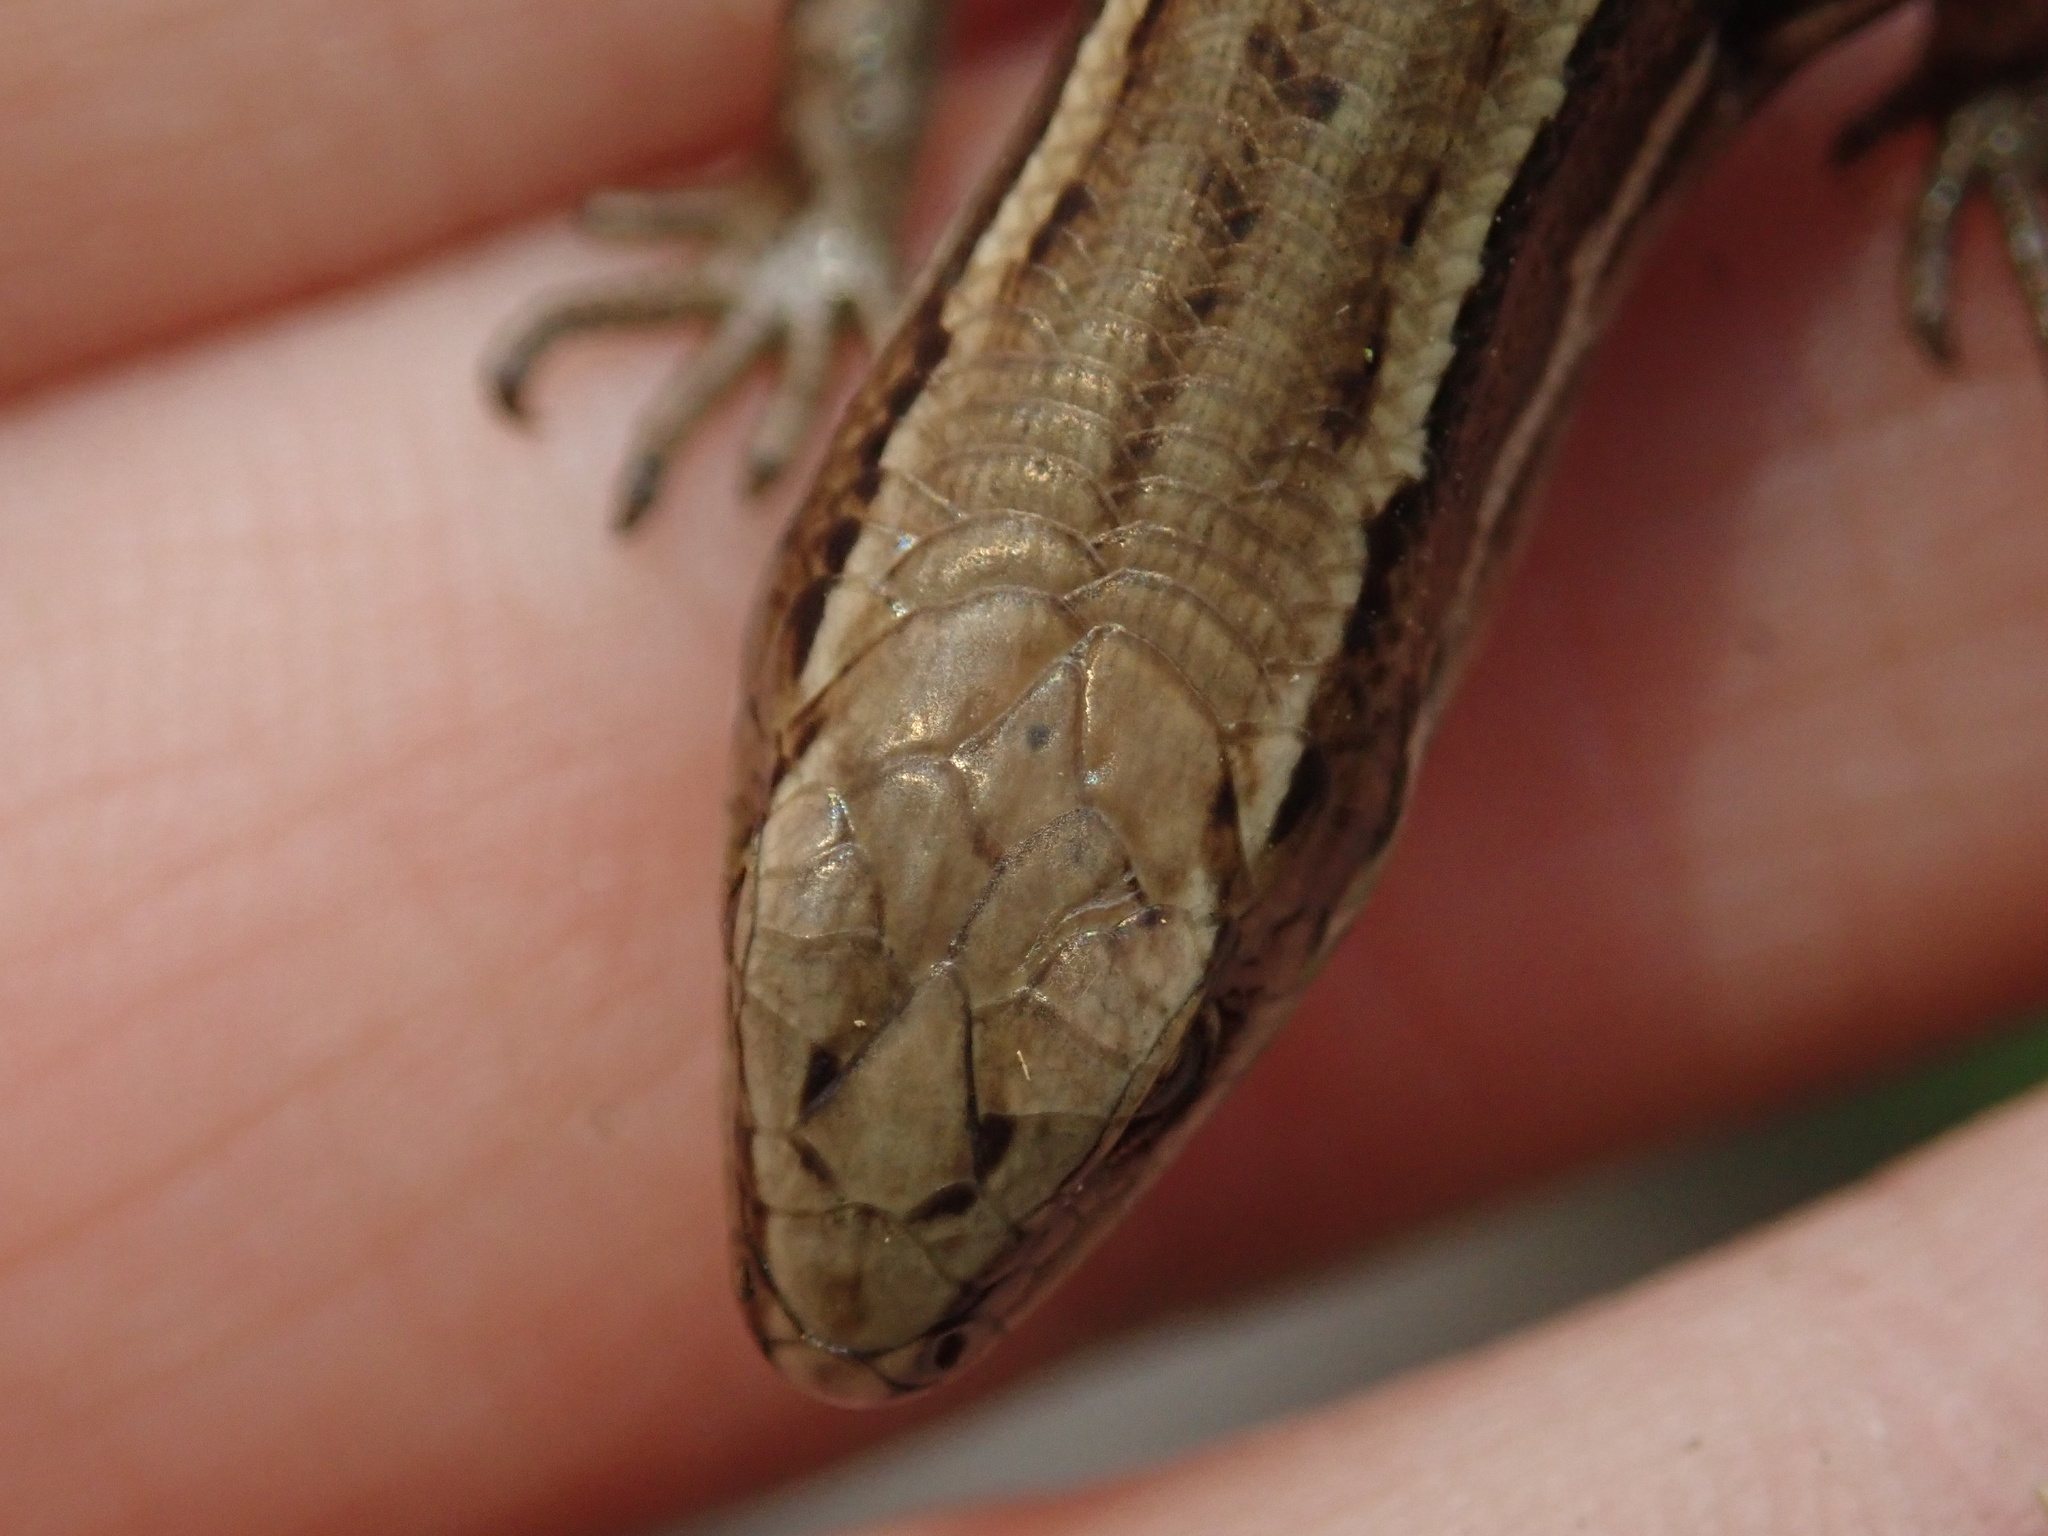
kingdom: Animalia
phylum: Chordata
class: Squamata
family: Scincidae
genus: Oligosoma
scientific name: Oligosoma polychroma
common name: Common new zealand skink
